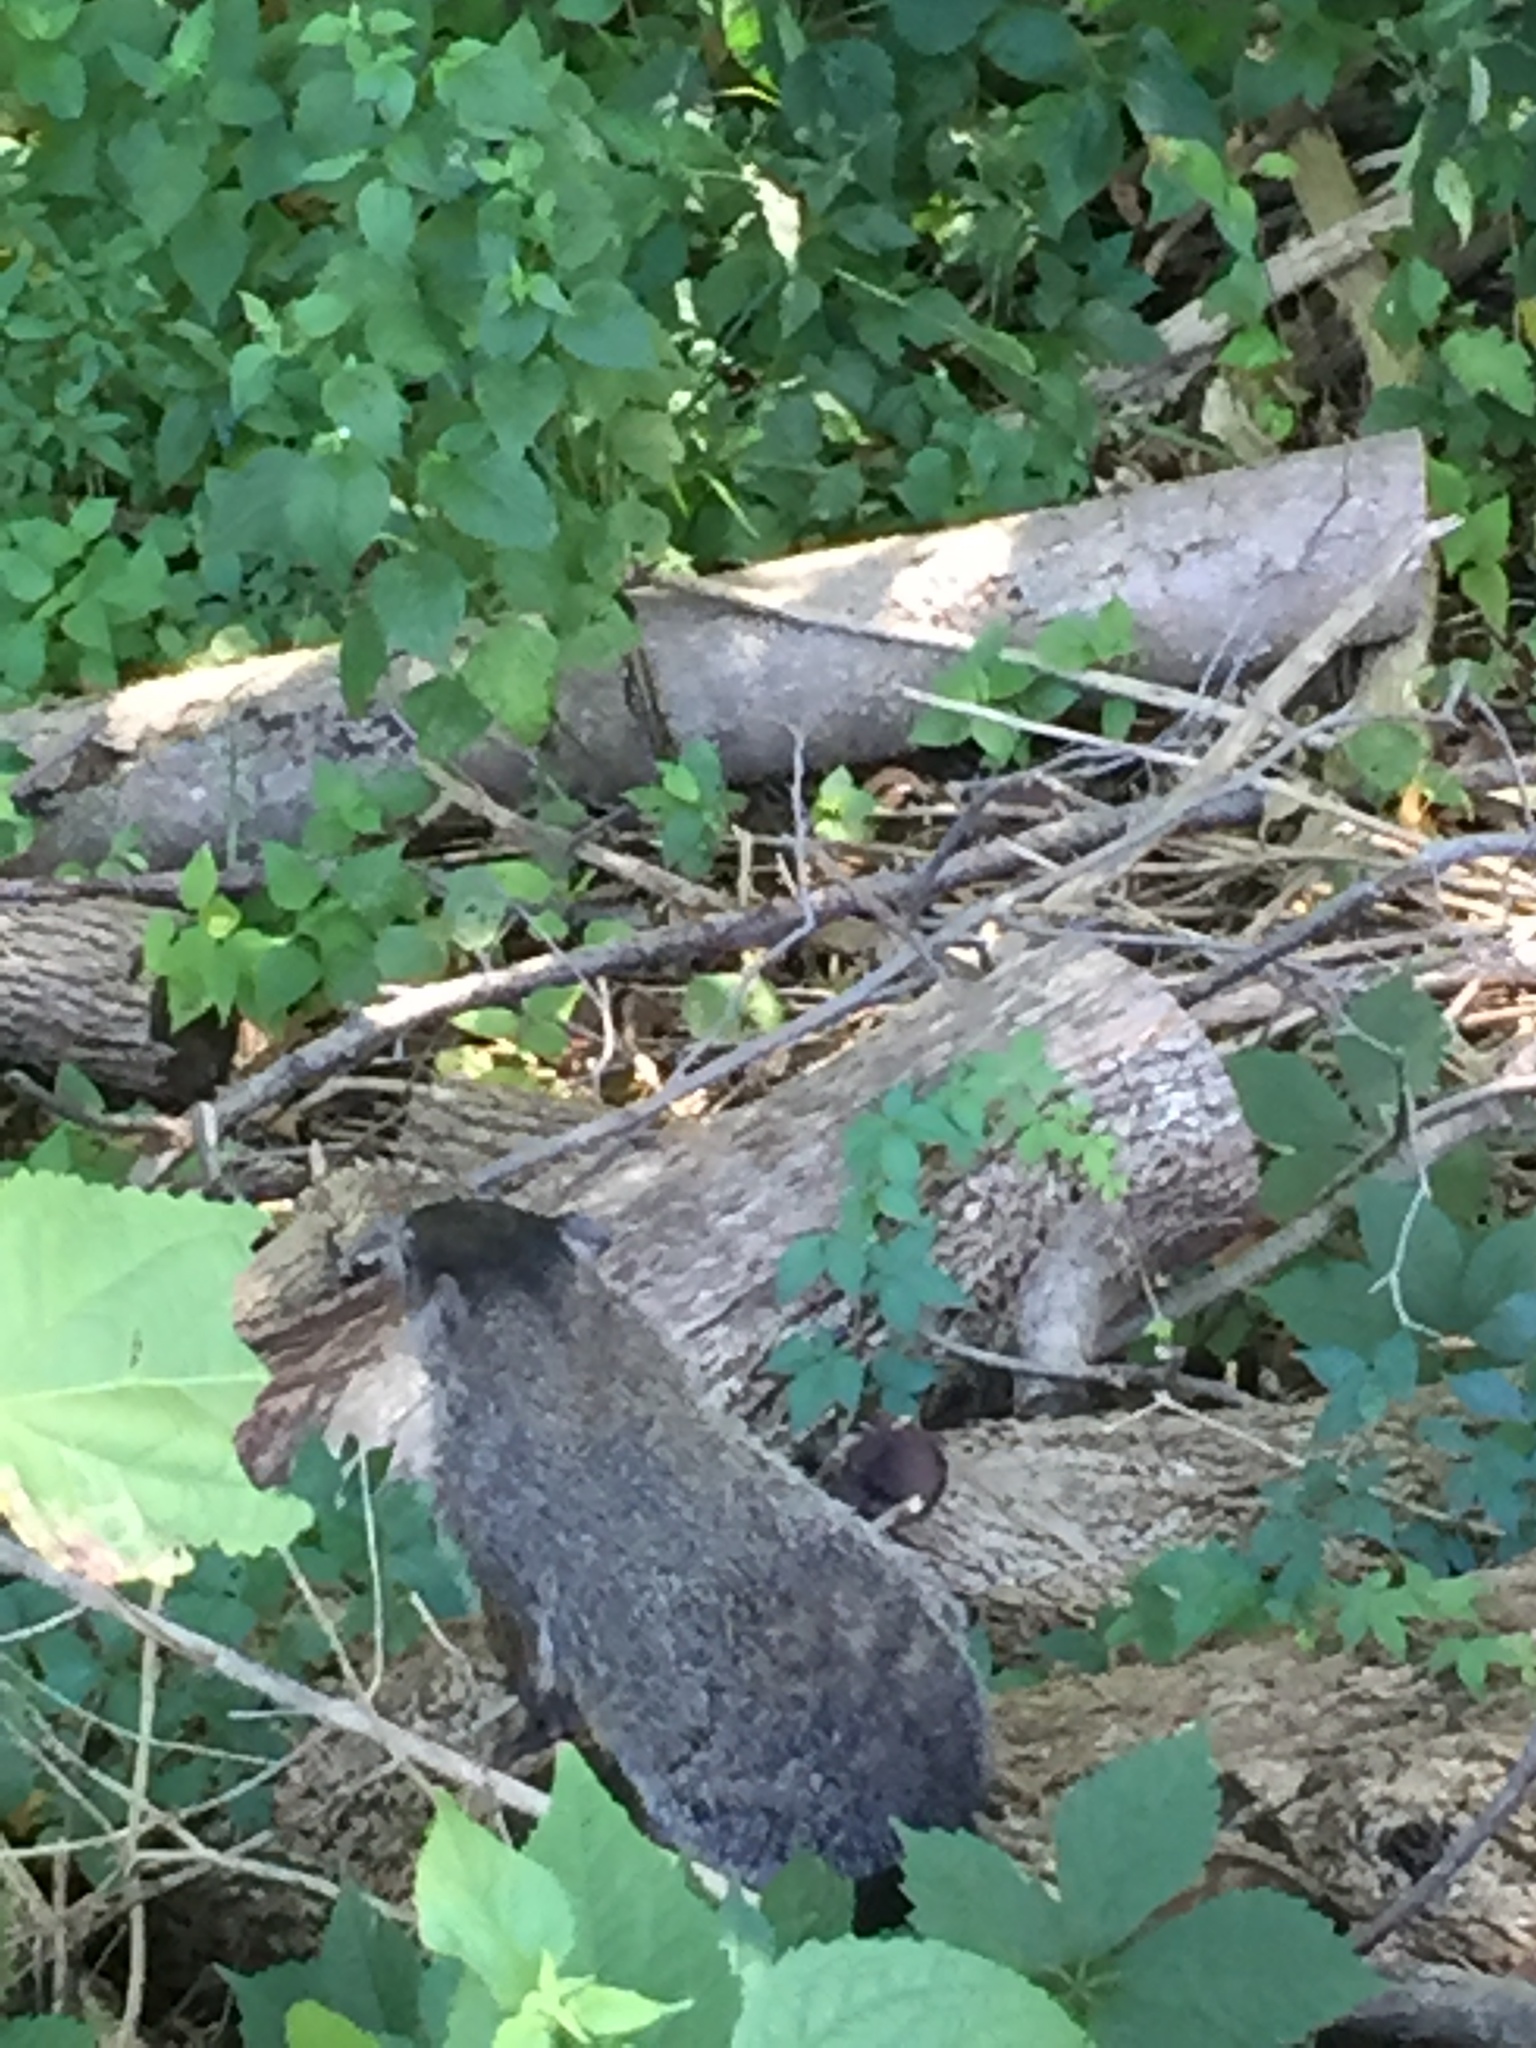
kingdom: Animalia
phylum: Chordata
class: Mammalia
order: Rodentia
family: Sciuridae
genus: Marmota
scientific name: Marmota monax
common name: Groundhog
